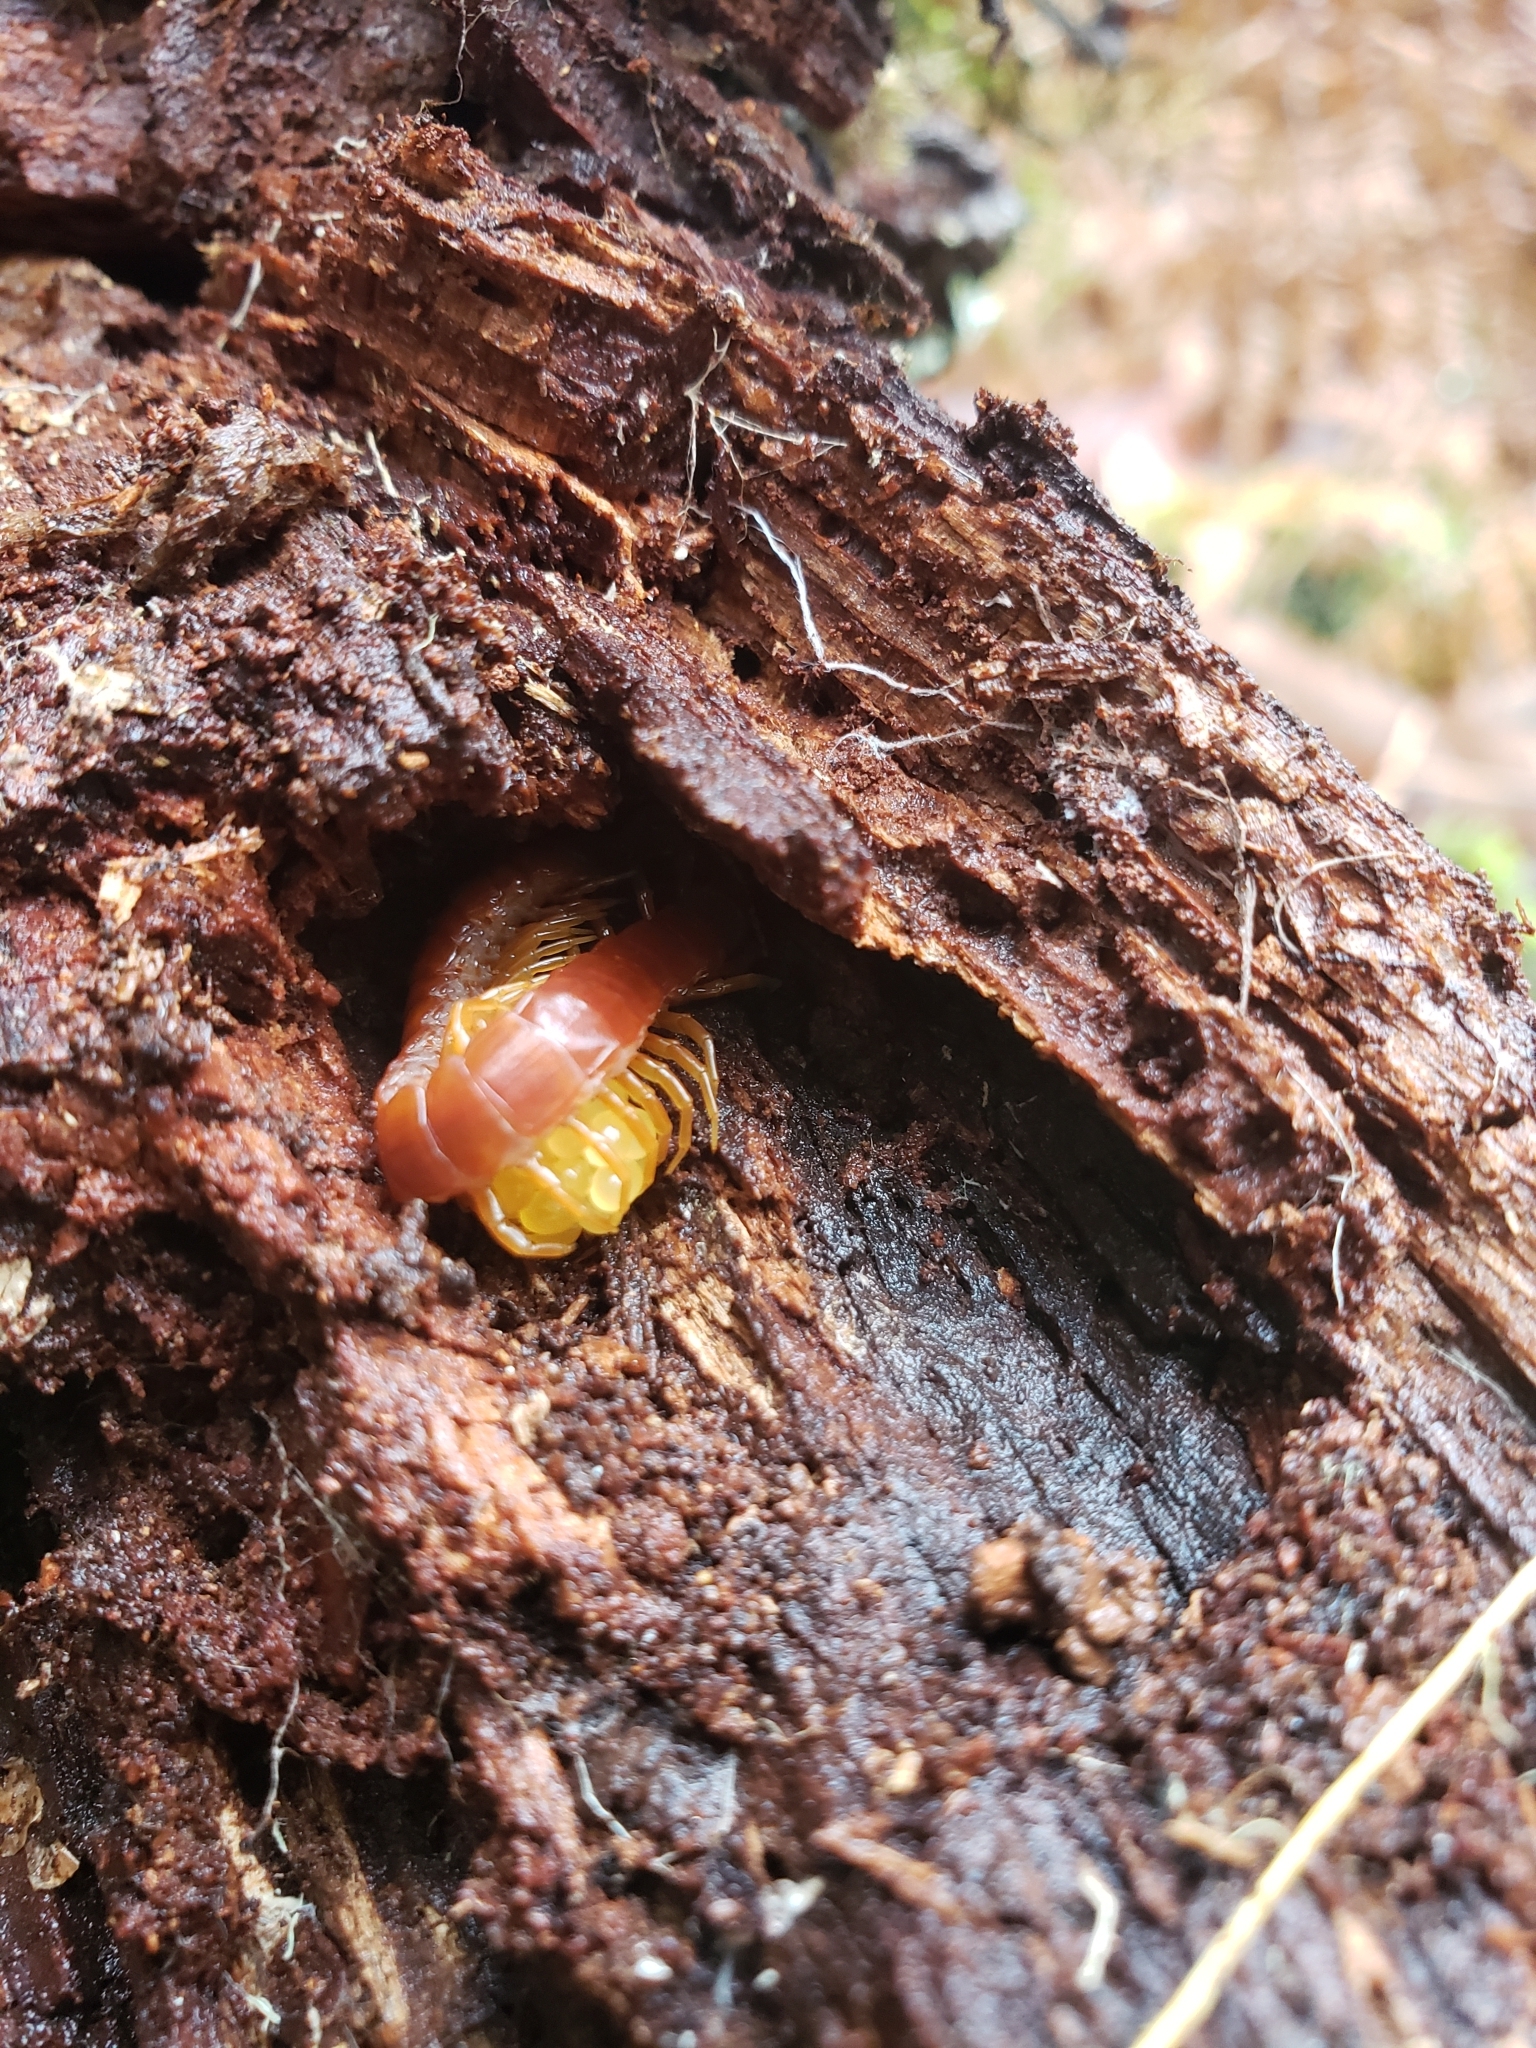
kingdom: Animalia
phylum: Arthropoda
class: Chilopoda
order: Scolopendromorpha
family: Scolopocryptopidae
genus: Scolopocryptops
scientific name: Scolopocryptops spinicaudus
